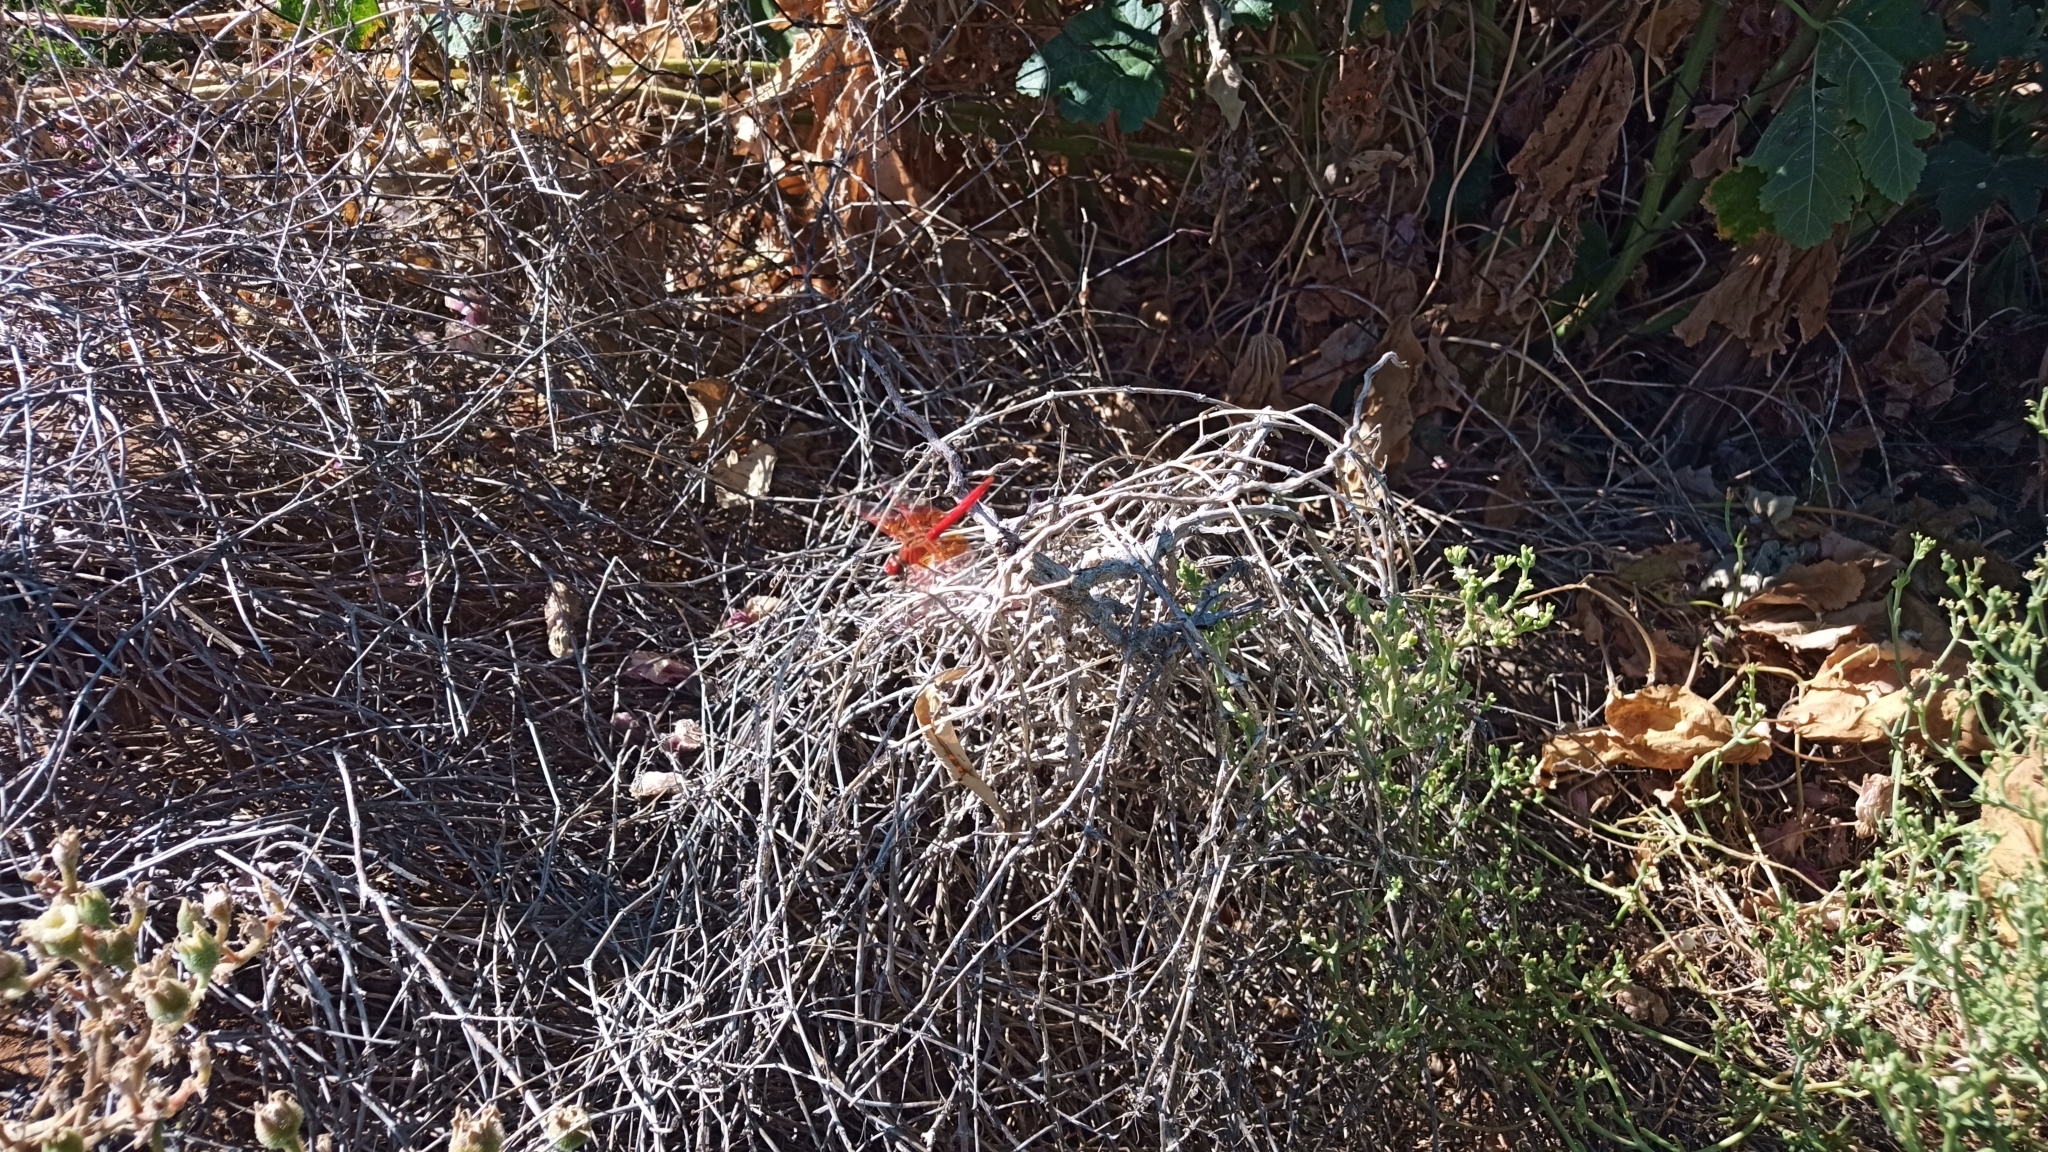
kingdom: Animalia
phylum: Arthropoda
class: Insecta
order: Odonata
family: Libellulidae
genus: Trithemis
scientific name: Trithemis kirbyi
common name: Kirby's dropwing
